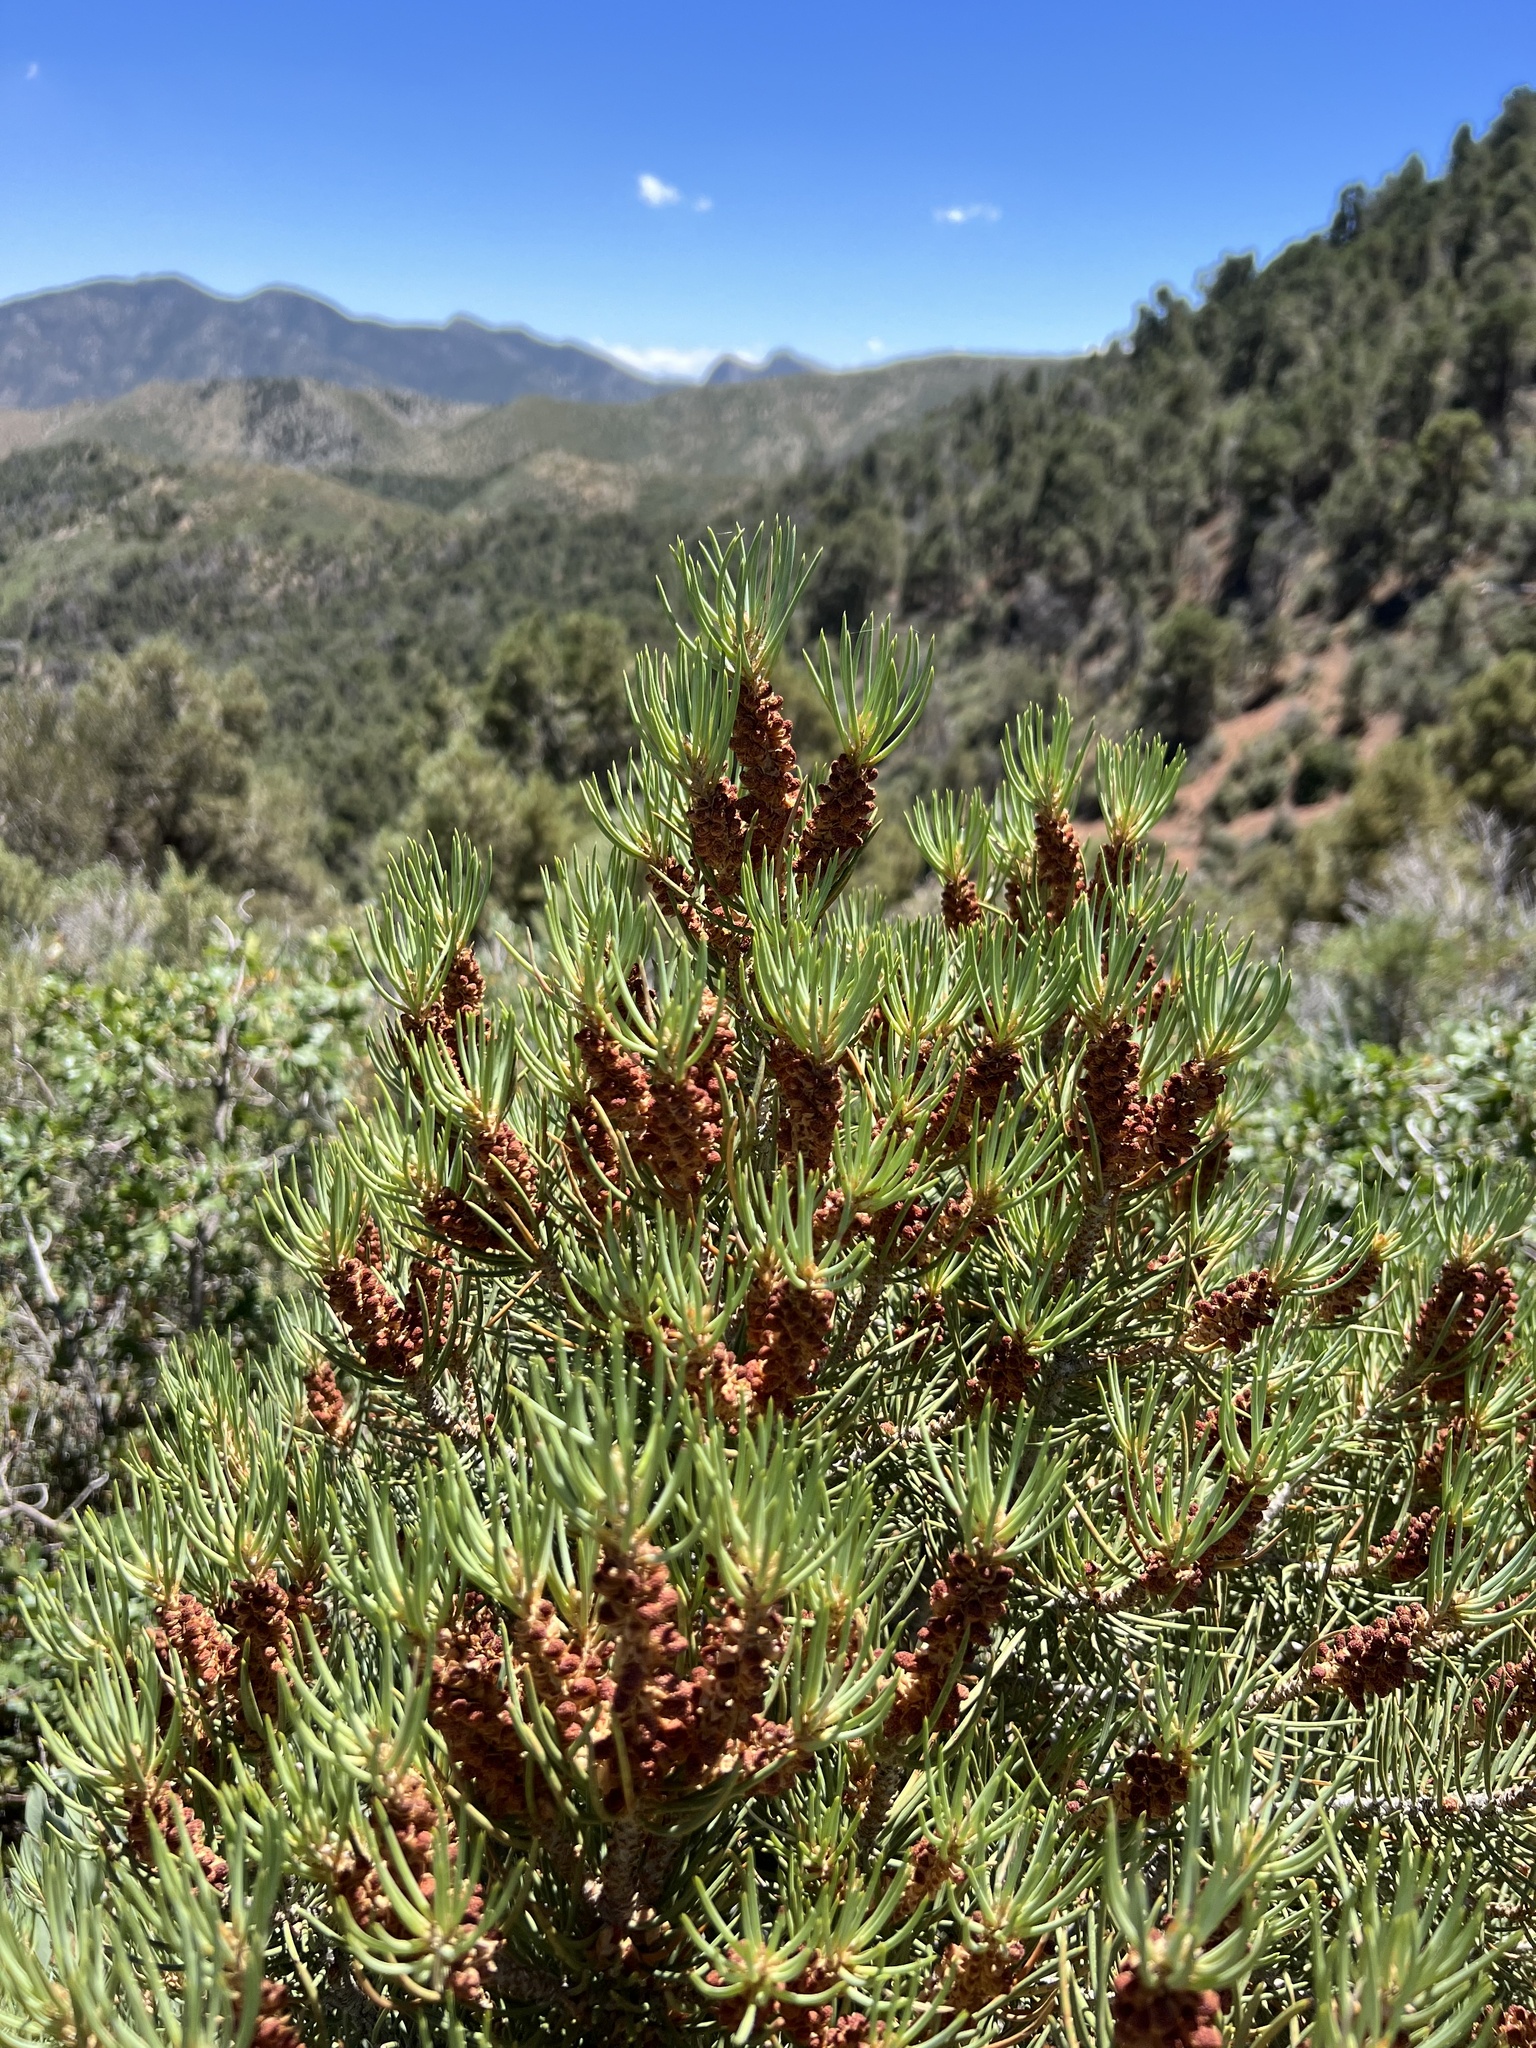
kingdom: Plantae
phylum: Tracheophyta
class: Pinopsida
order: Pinales
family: Pinaceae
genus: Pinus
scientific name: Pinus monophylla
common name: One-leaved nut pine
